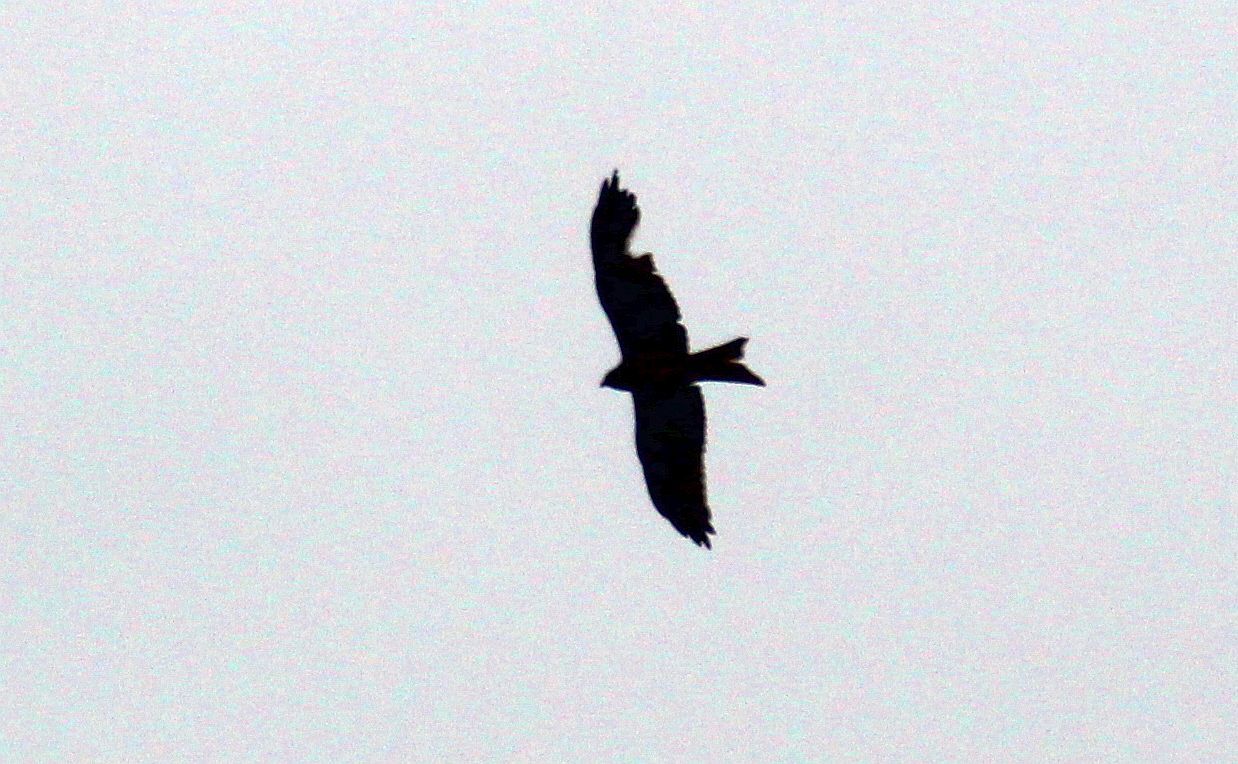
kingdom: Animalia
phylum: Chordata
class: Aves
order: Accipitriformes
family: Accipitridae
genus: Milvus
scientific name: Milvus milvus
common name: Red kite
